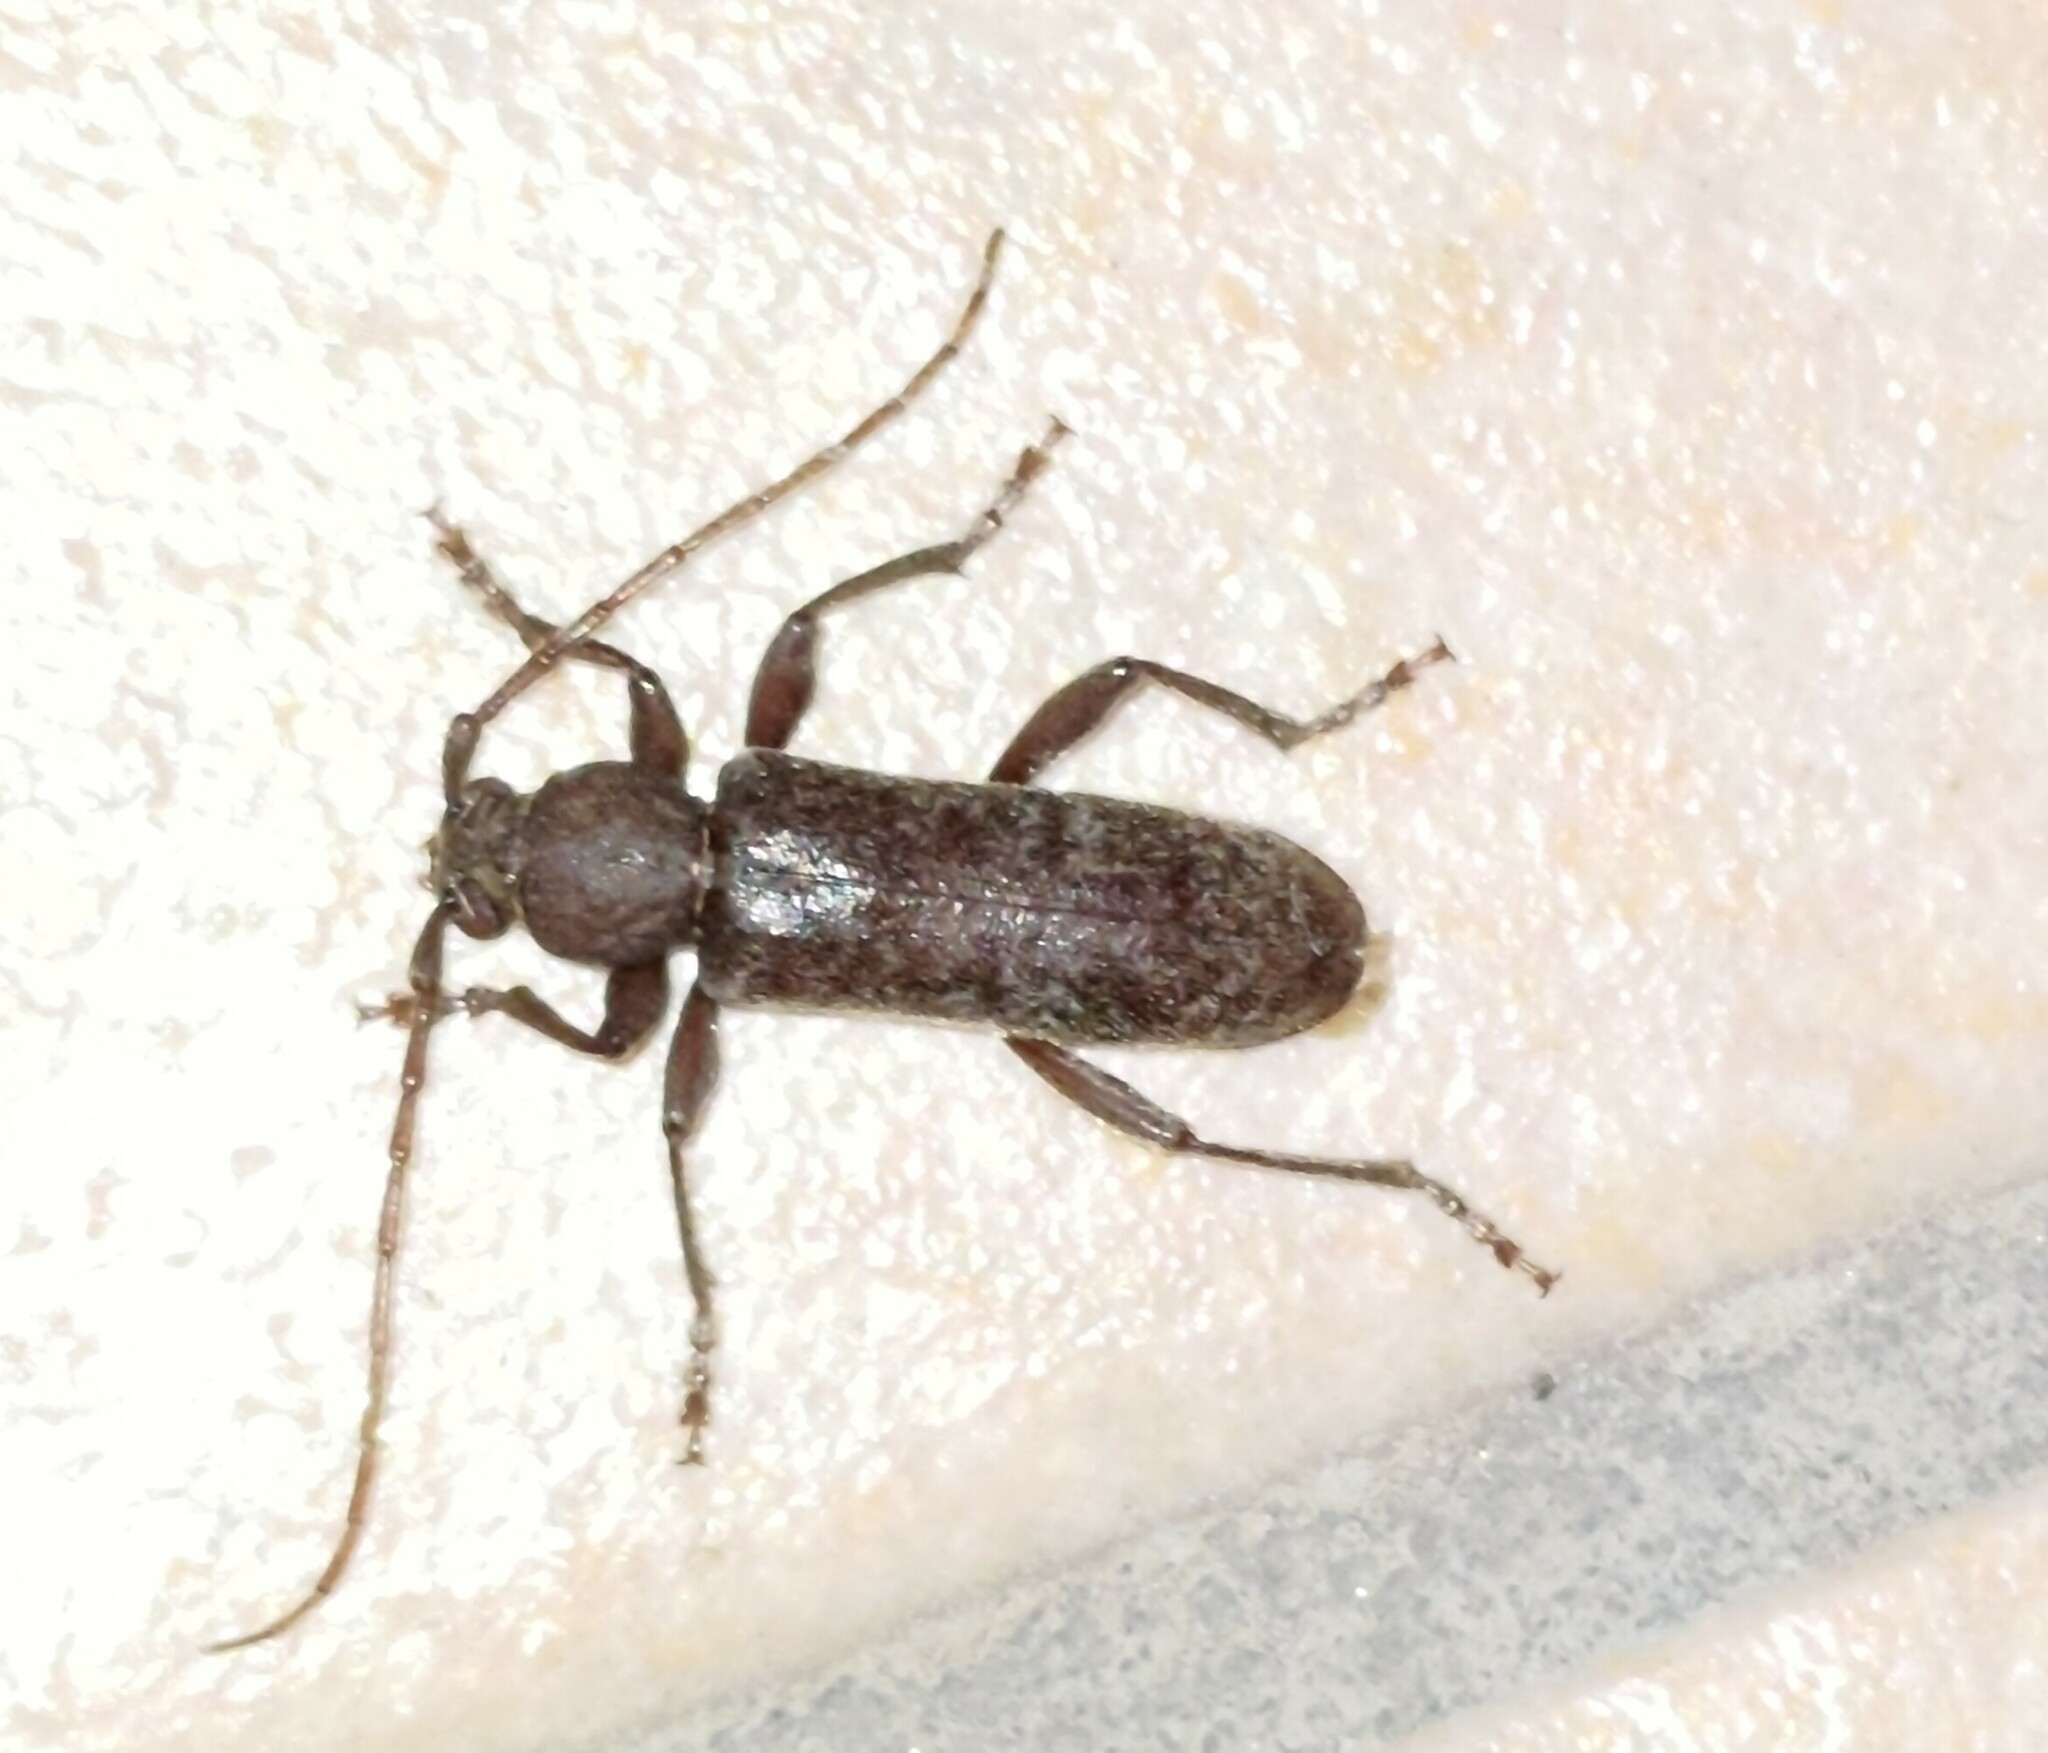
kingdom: Animalia
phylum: Arthropoda
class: Insecta
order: Coleoptera
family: Cerambycidae
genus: Trichoferus
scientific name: Trichoferus campestris
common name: Velvet long horned beetle
